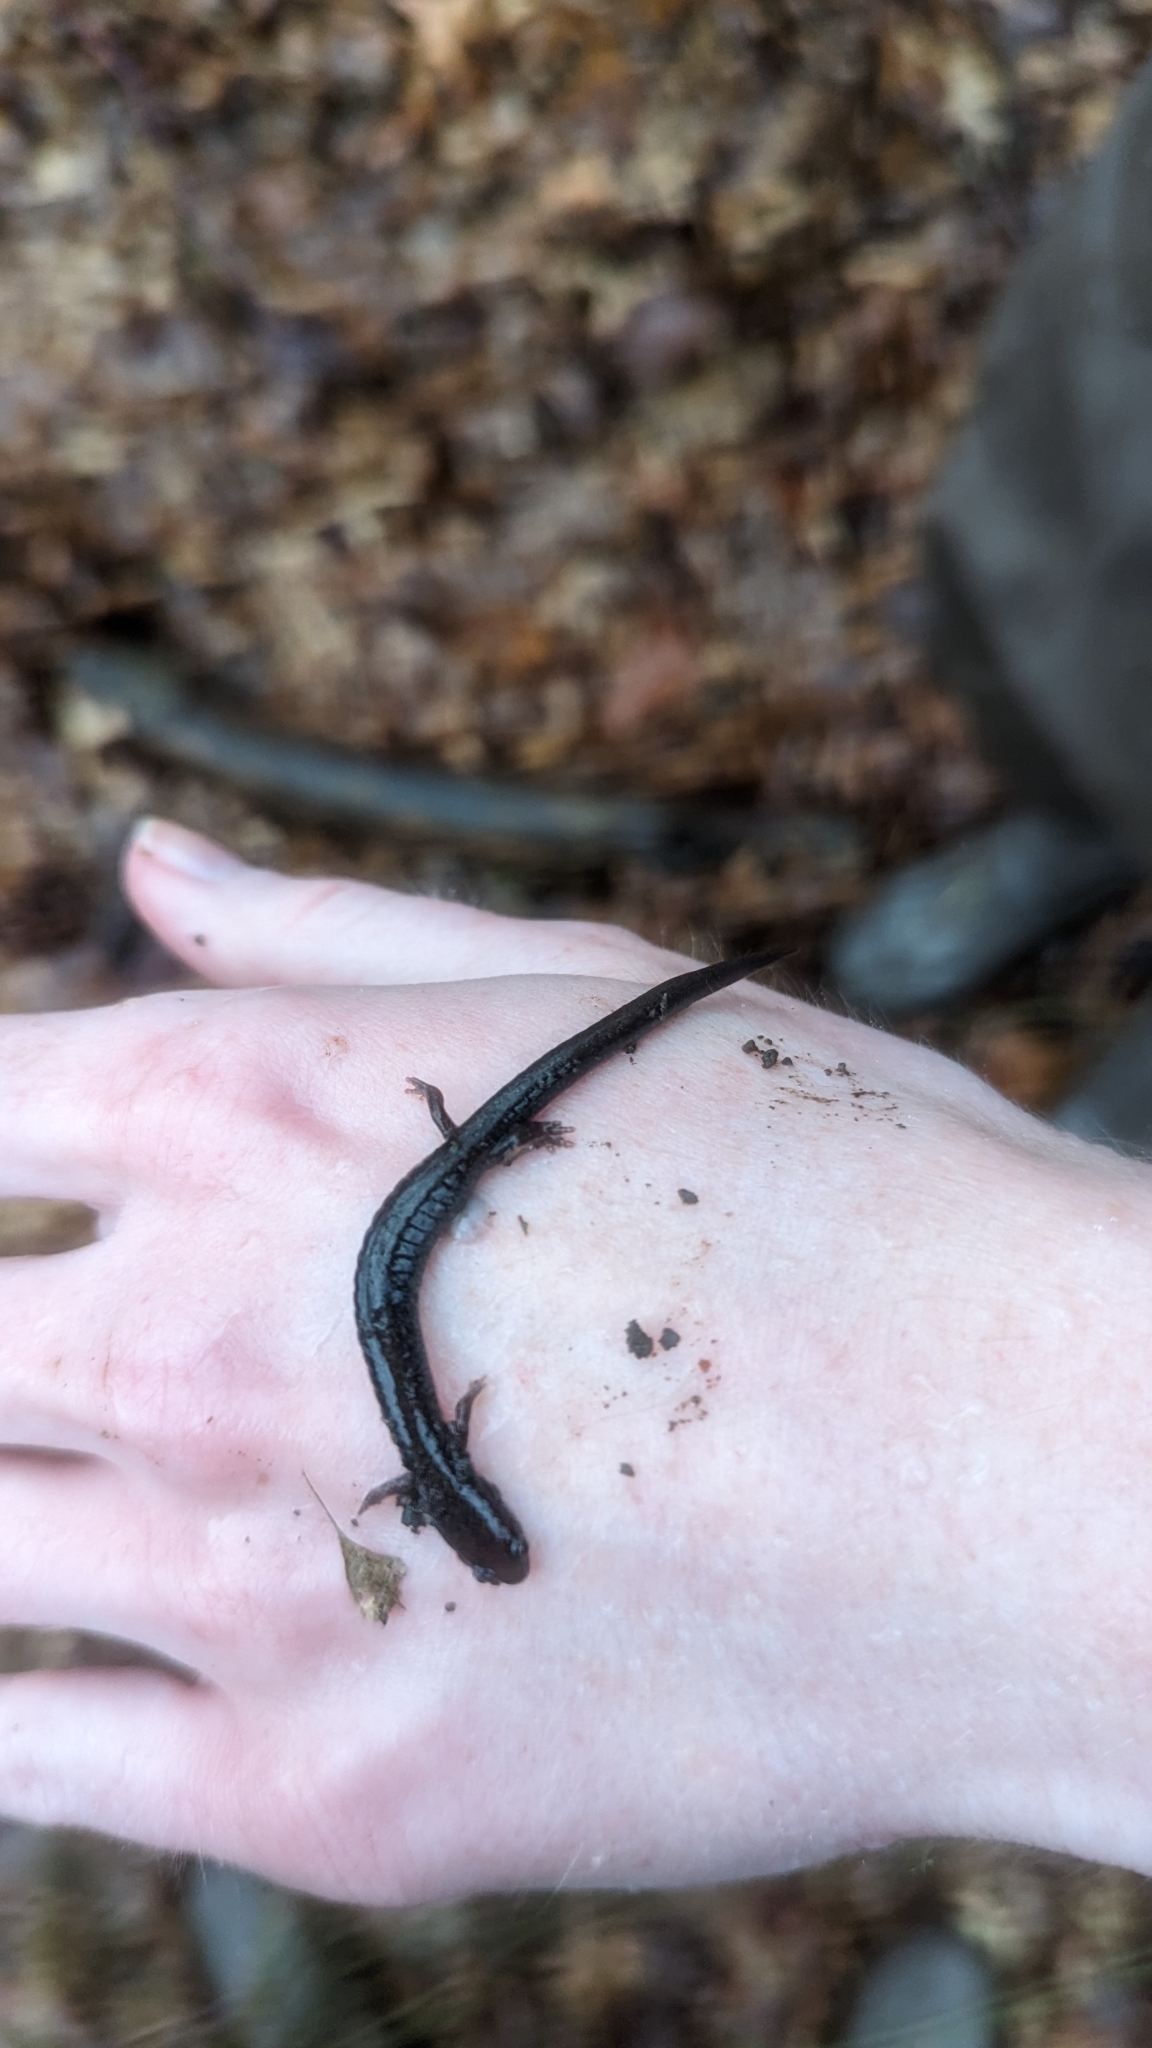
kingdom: Animalia
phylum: Chordata
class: Amphibia
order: Caudata
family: Plethodontidae
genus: Plethodon
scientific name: Plethodon cinereus
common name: Redback salamander
